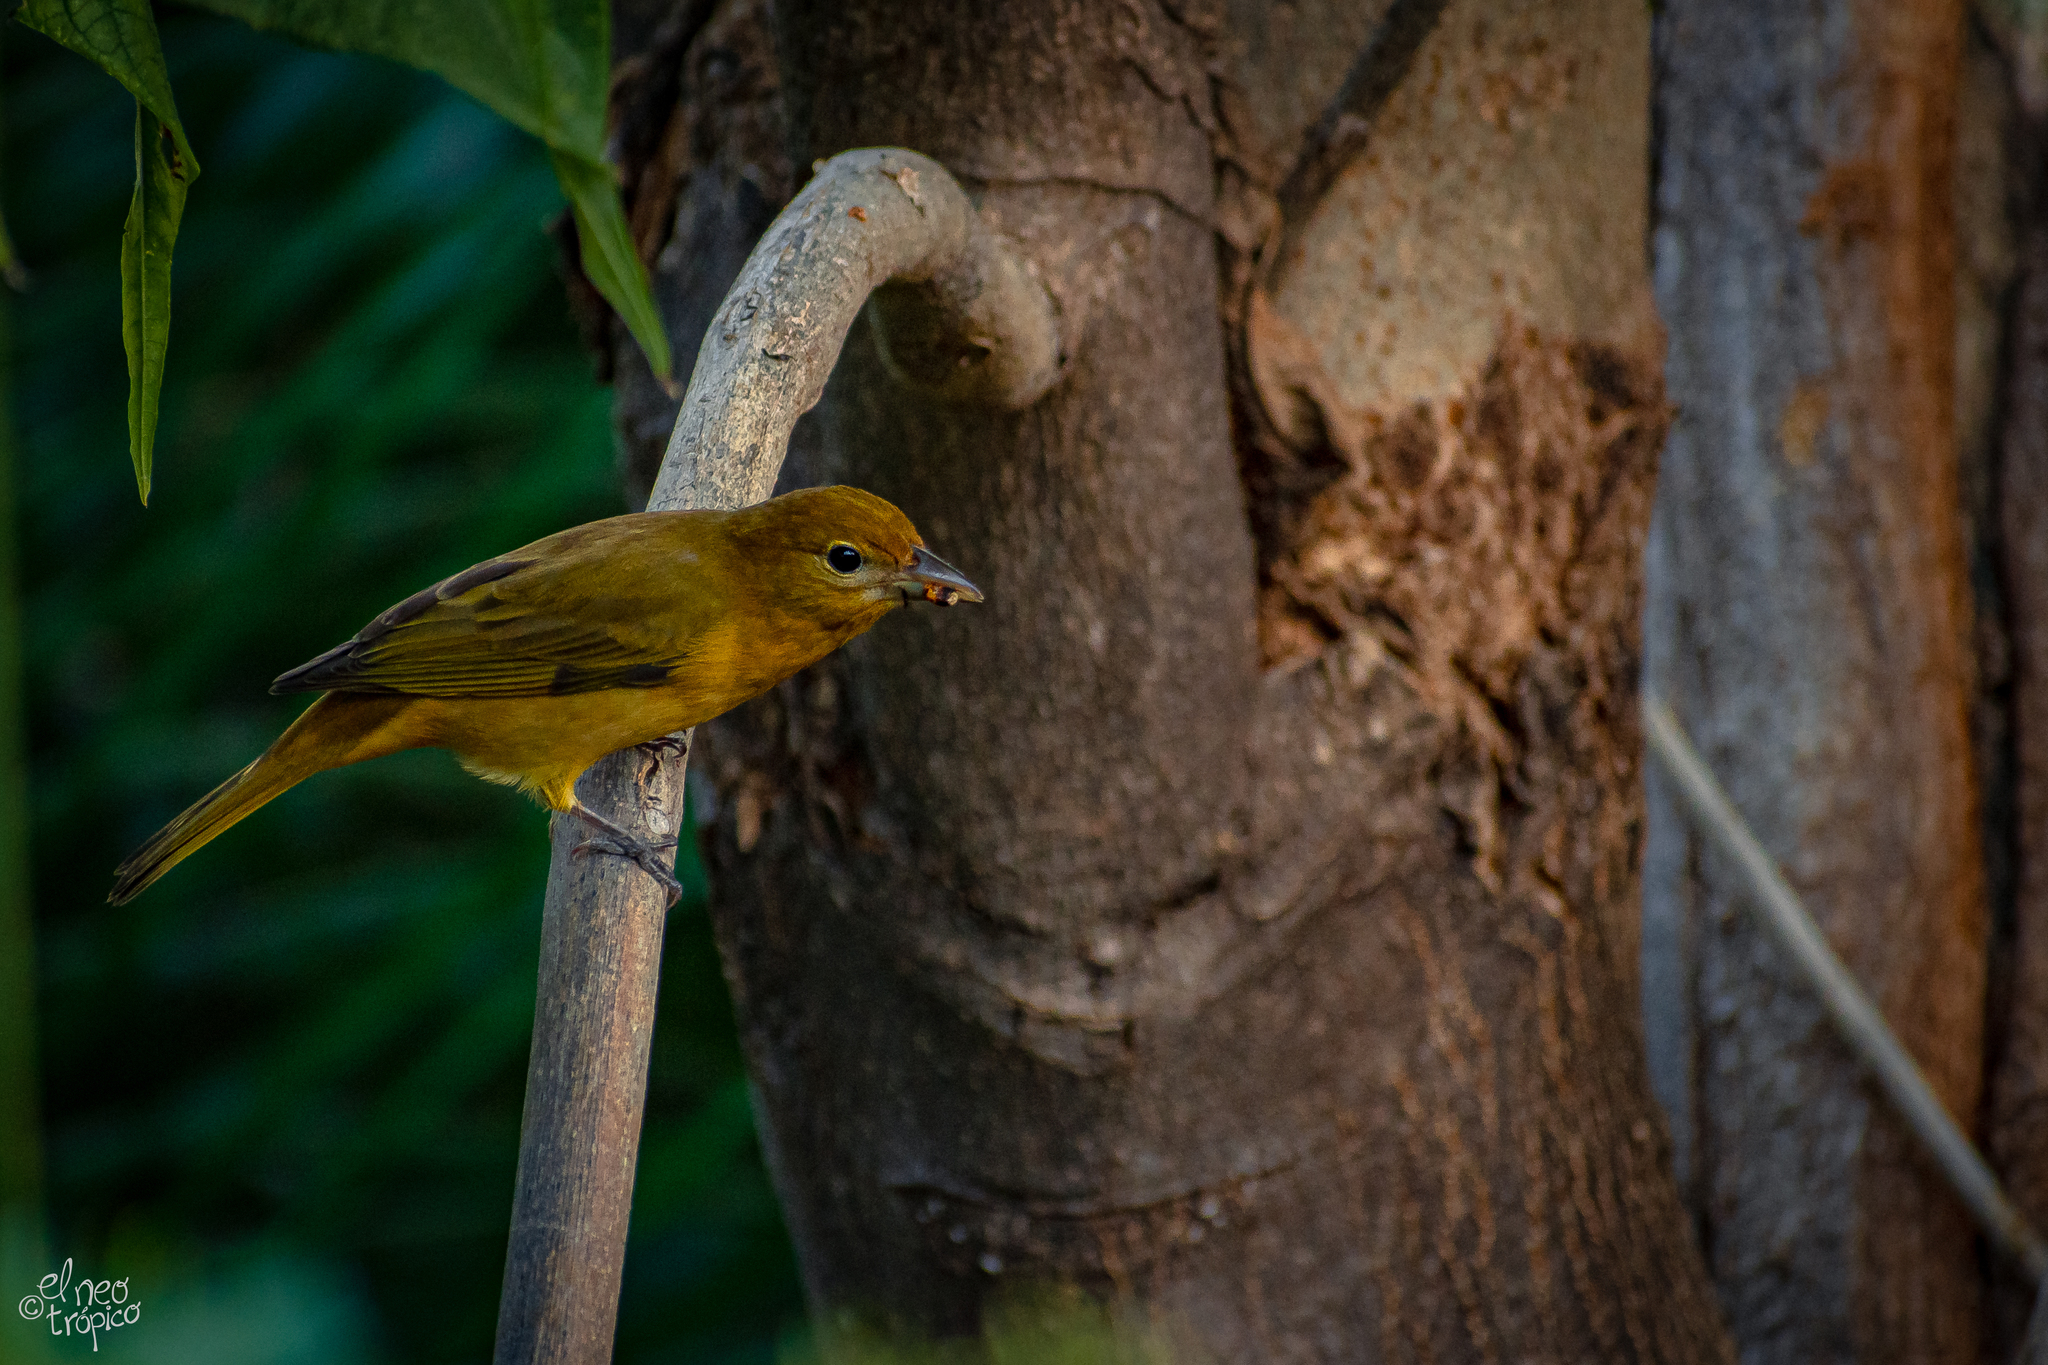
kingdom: Animalia
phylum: Chordata
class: Aves
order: Passeriformes
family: Cardinalidae
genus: Piranga
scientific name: Piranga rubra
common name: Summer tanager
